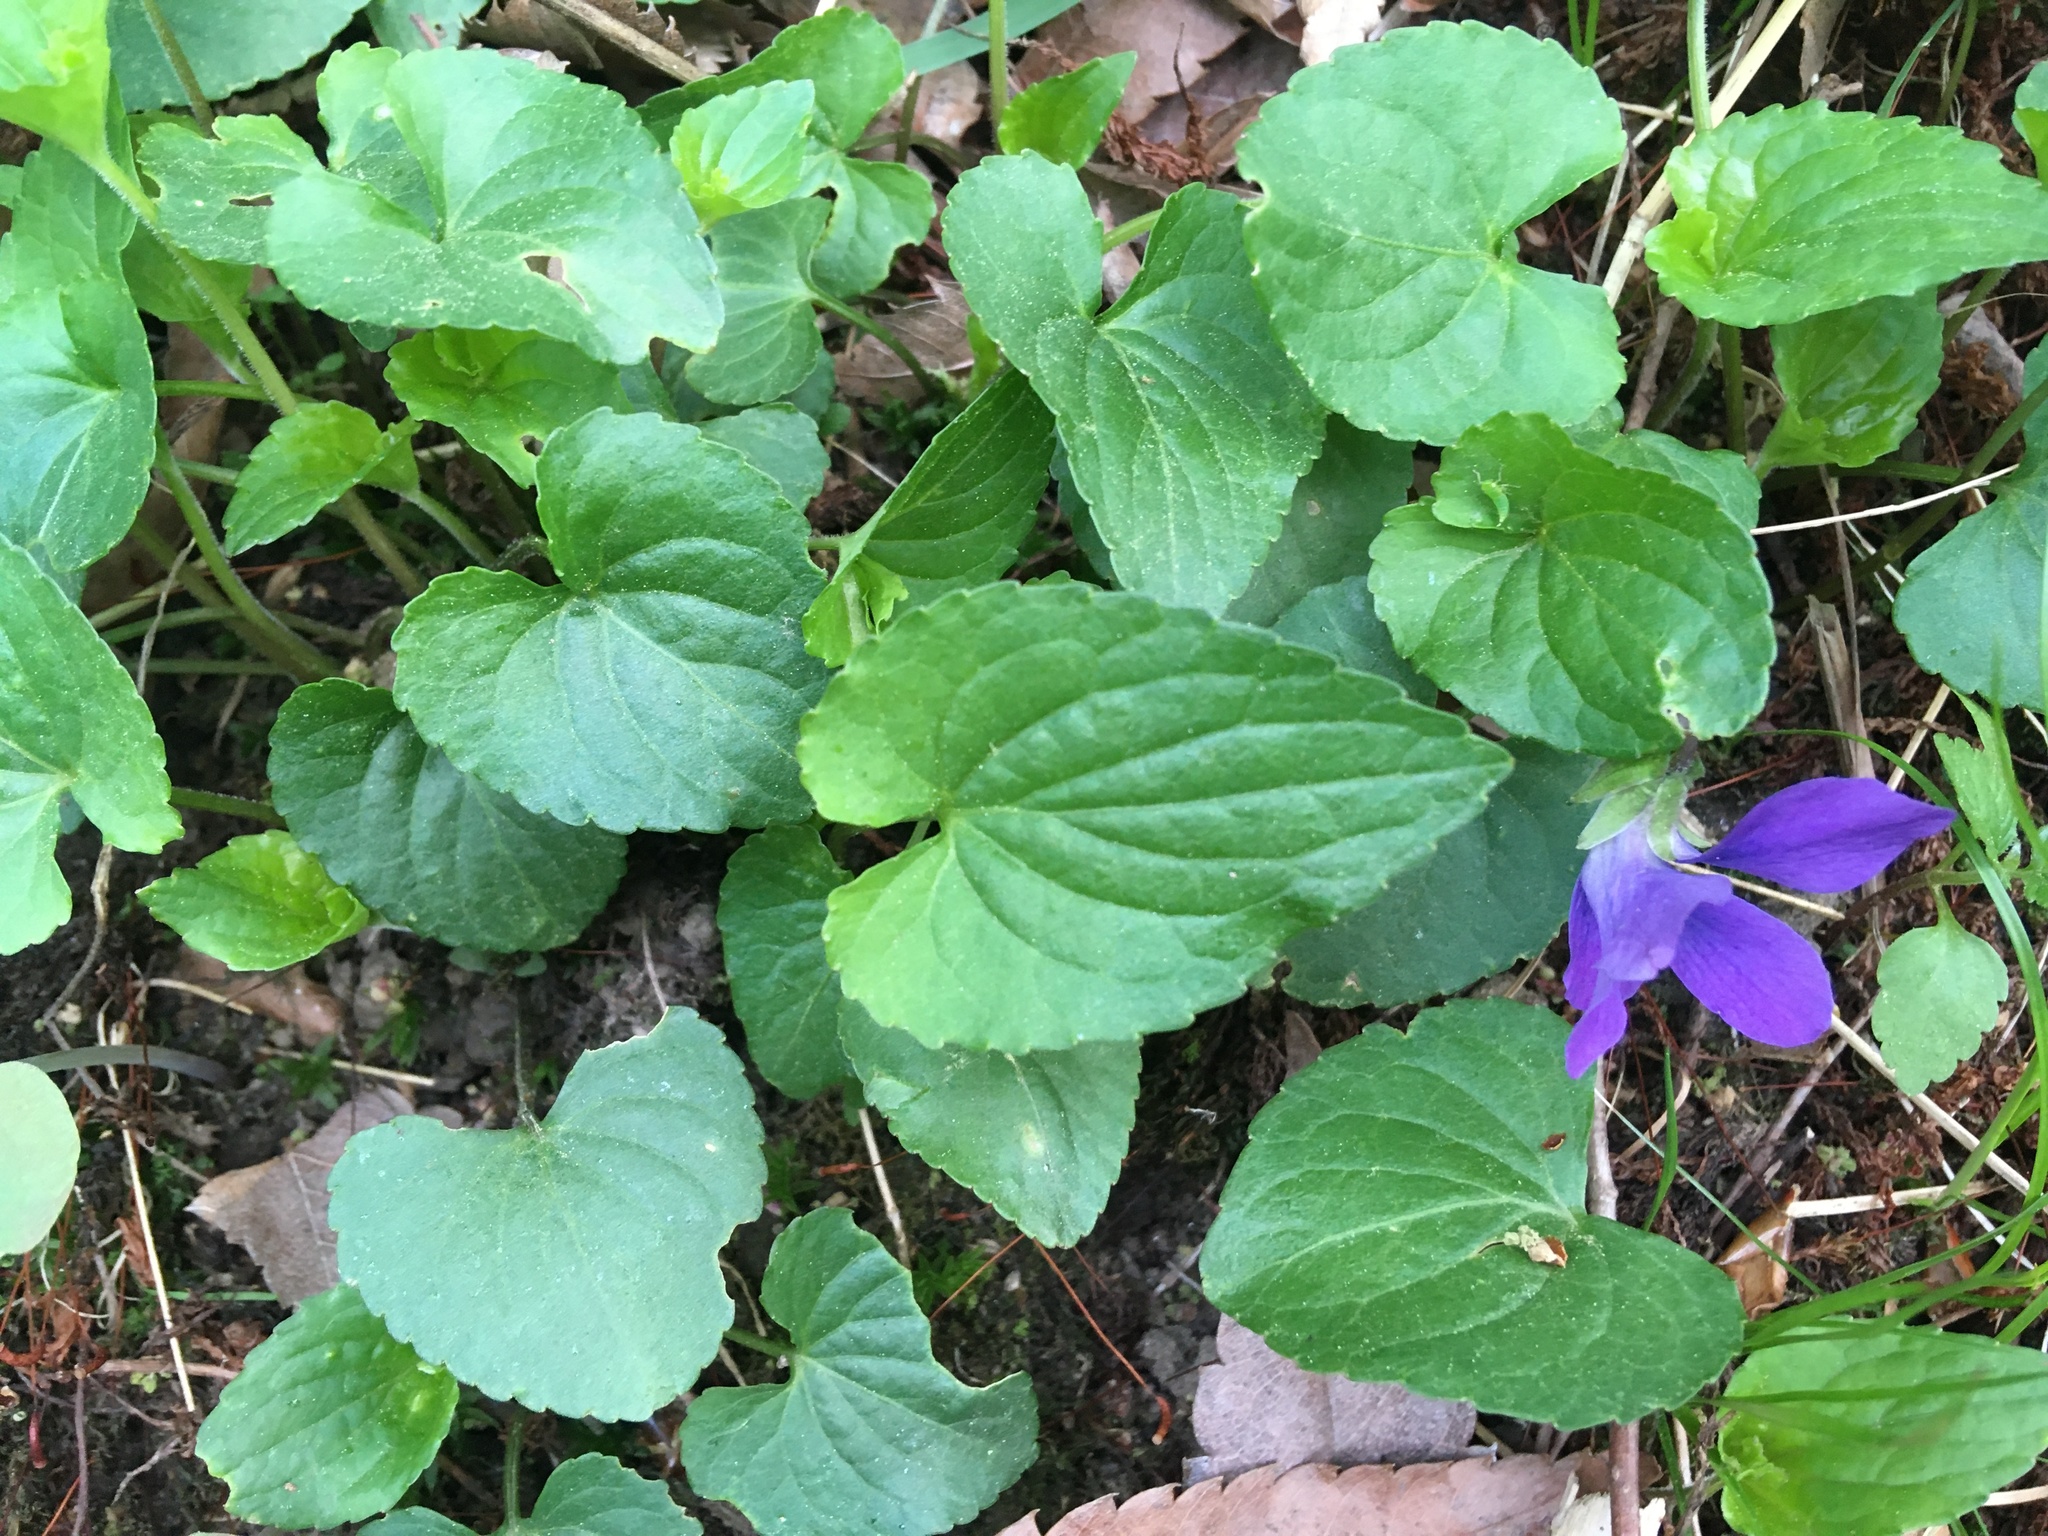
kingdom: Plantae
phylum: Tracheophyta
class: Magnoliopsida
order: Malpighiales
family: Violaceae
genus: Viola
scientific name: Viola sororia
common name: Dooryard violet
